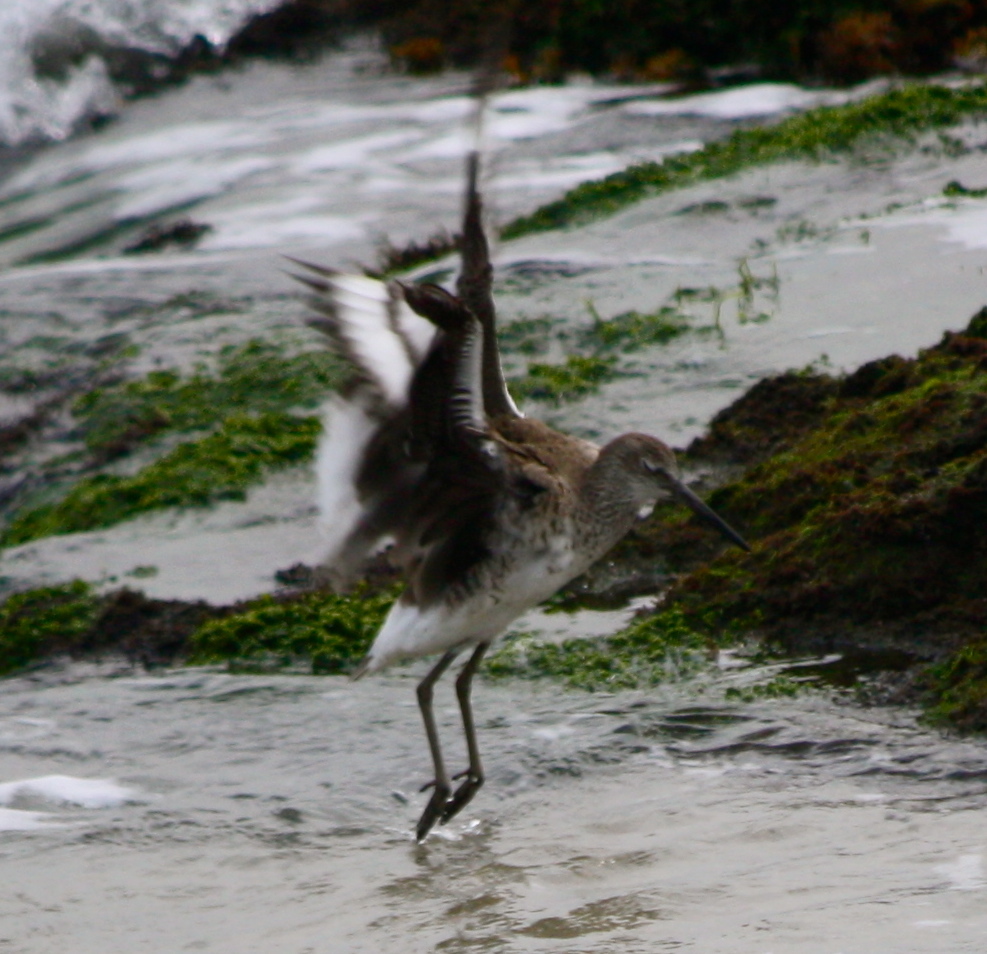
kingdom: Animalia
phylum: Chordata
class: Aves
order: Charadriiformes
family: Scolopacidae
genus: Tringa
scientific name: Tringa semipalmata
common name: Willet
